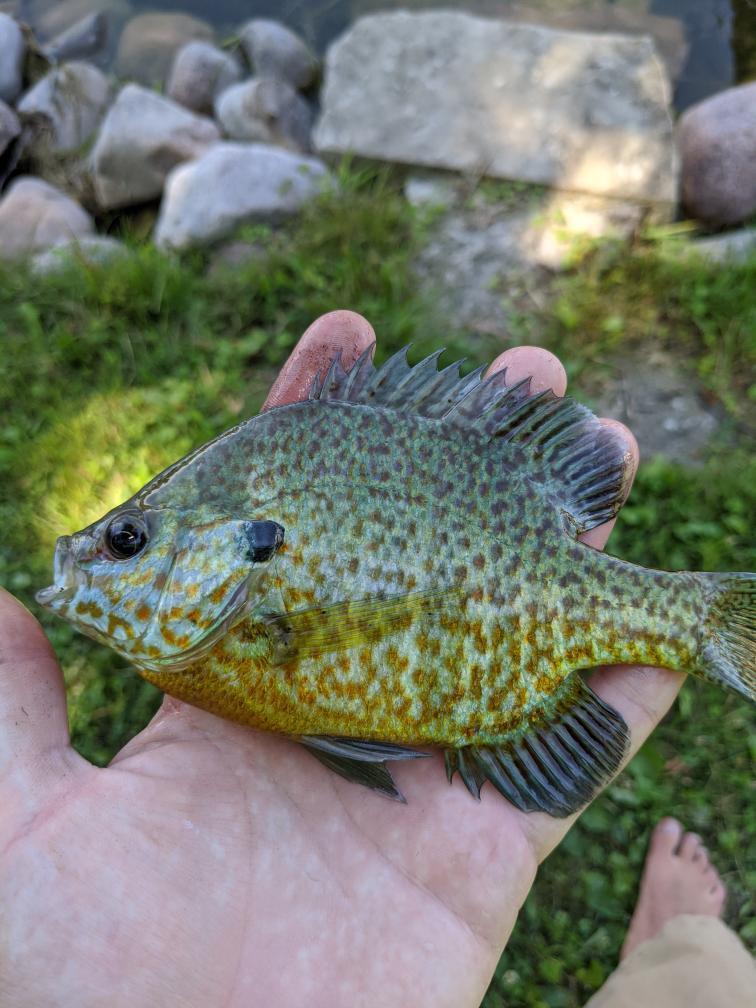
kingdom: Animalia
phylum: Chordata
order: Perciformes
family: Centrarchidae
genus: Lepomis
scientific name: Lepomis
